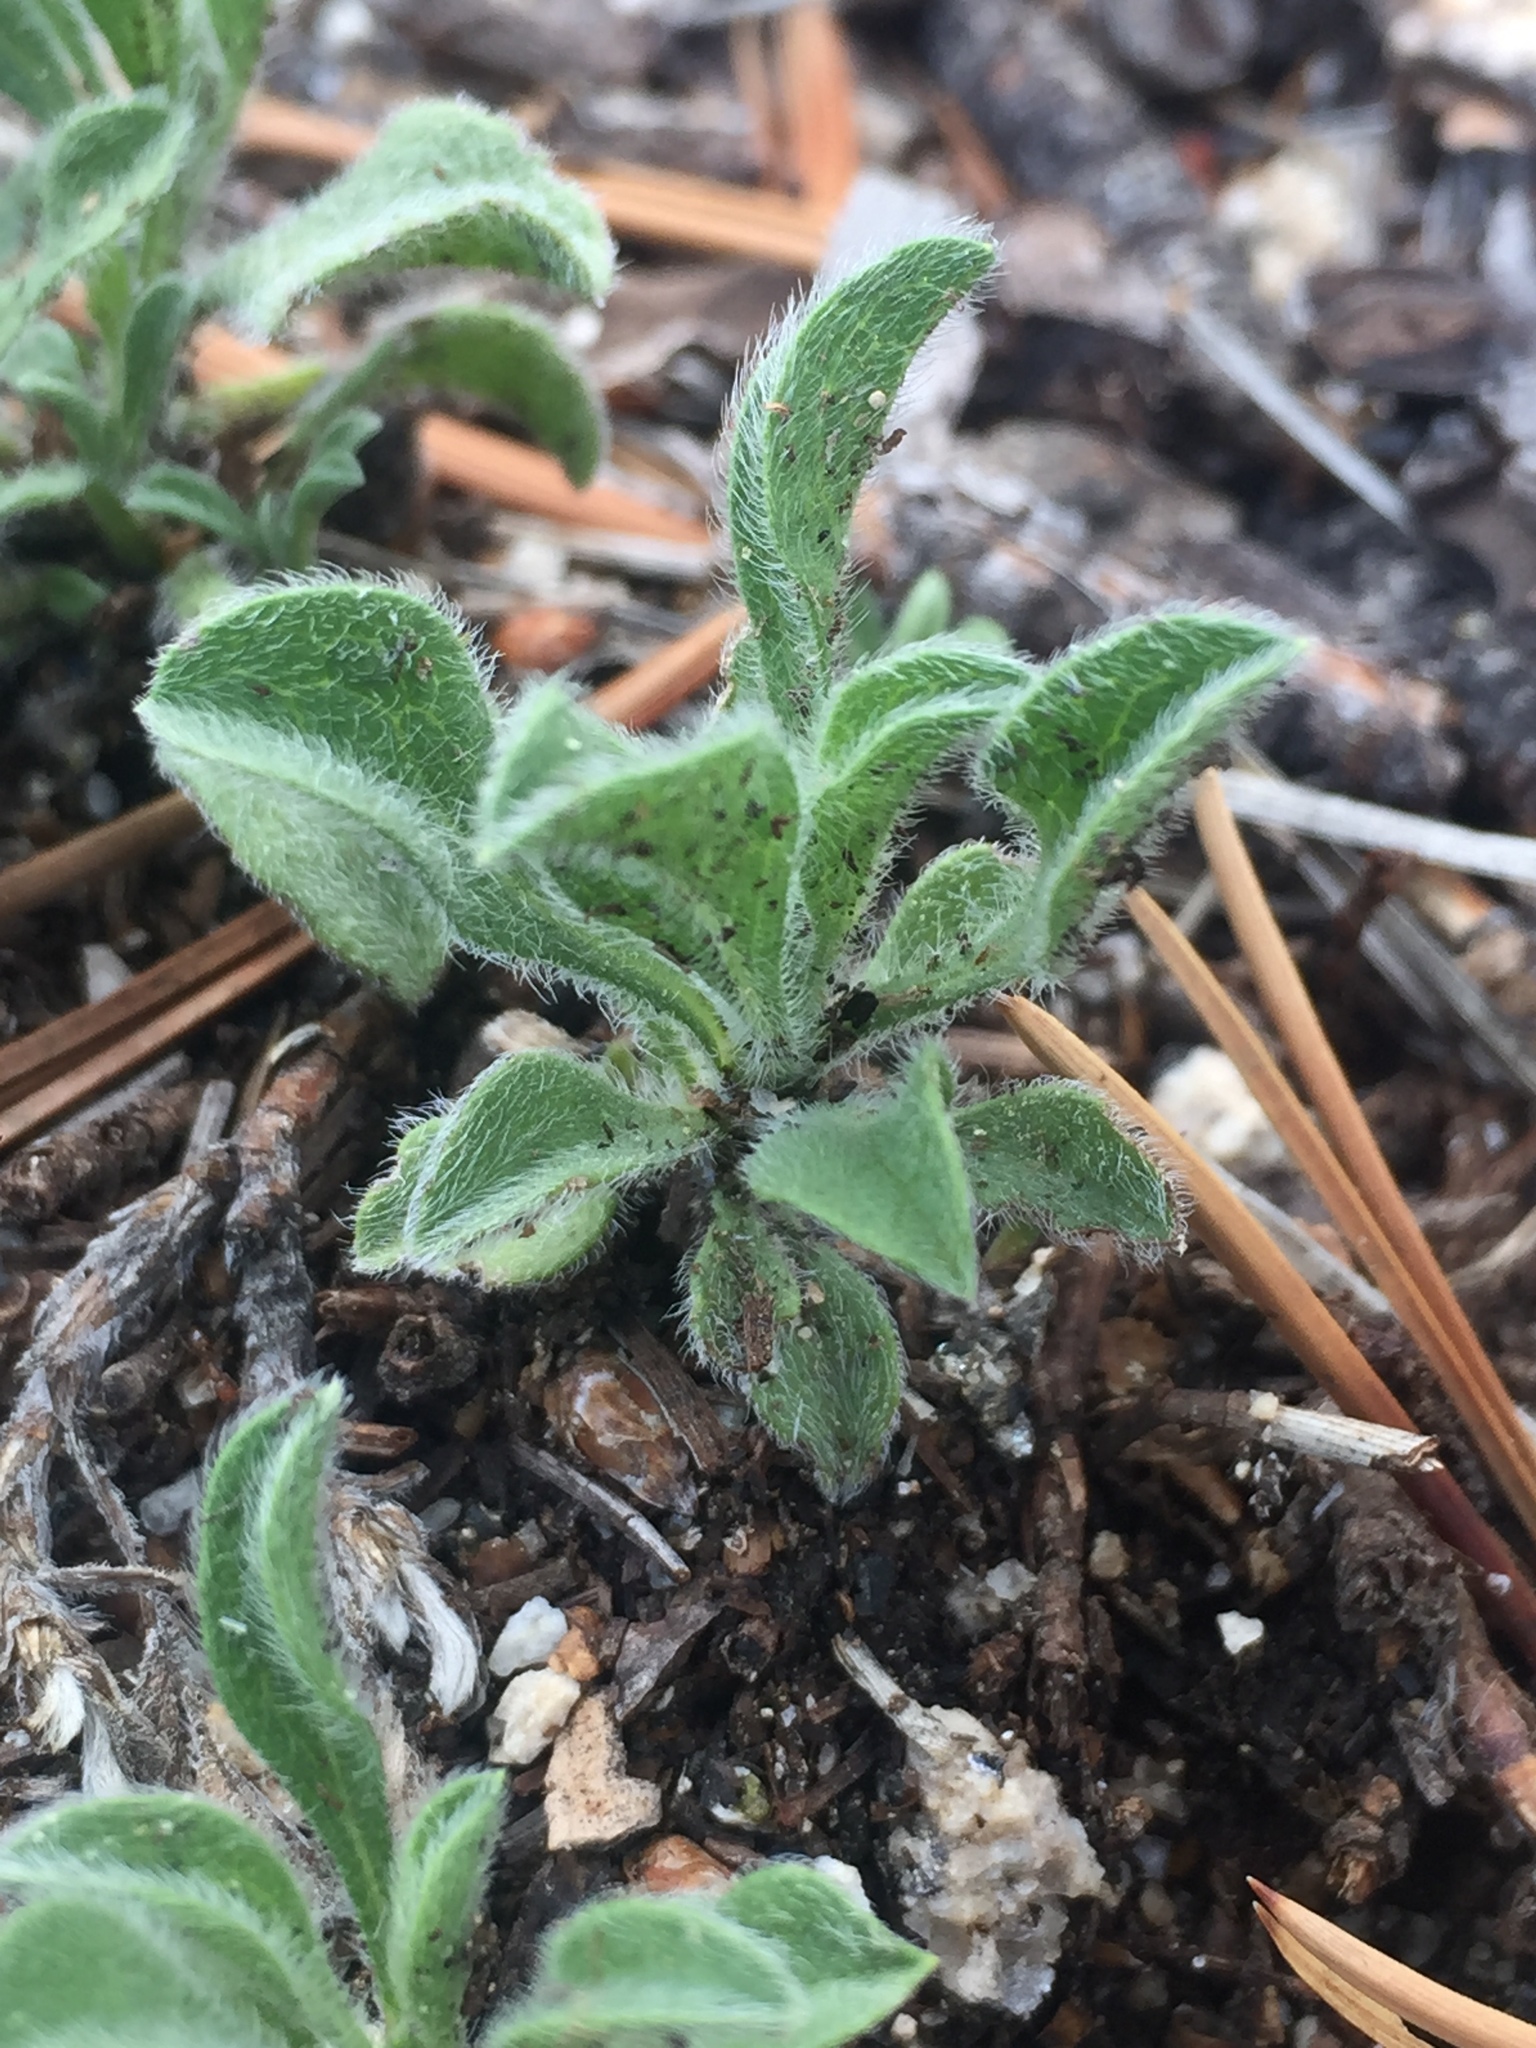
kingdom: Plantae
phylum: Tracheophyta
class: Magnoliopsida
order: Asterales
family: Asteraceae
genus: Heterotheca
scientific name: Heterotheca brandegeei
